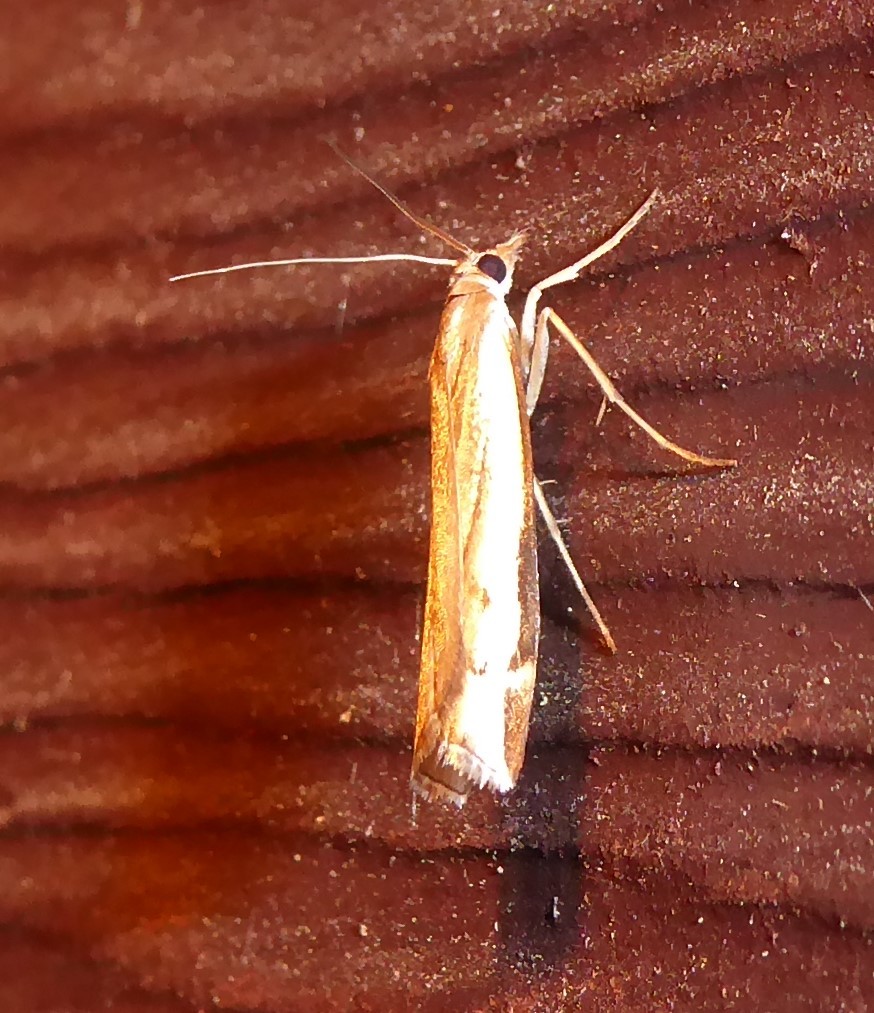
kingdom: Animalia
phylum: Arthropoda
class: Insecta
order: Lepidoptera
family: Crambidae
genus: Orocrambus
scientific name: Orocrambus flexuosellus
